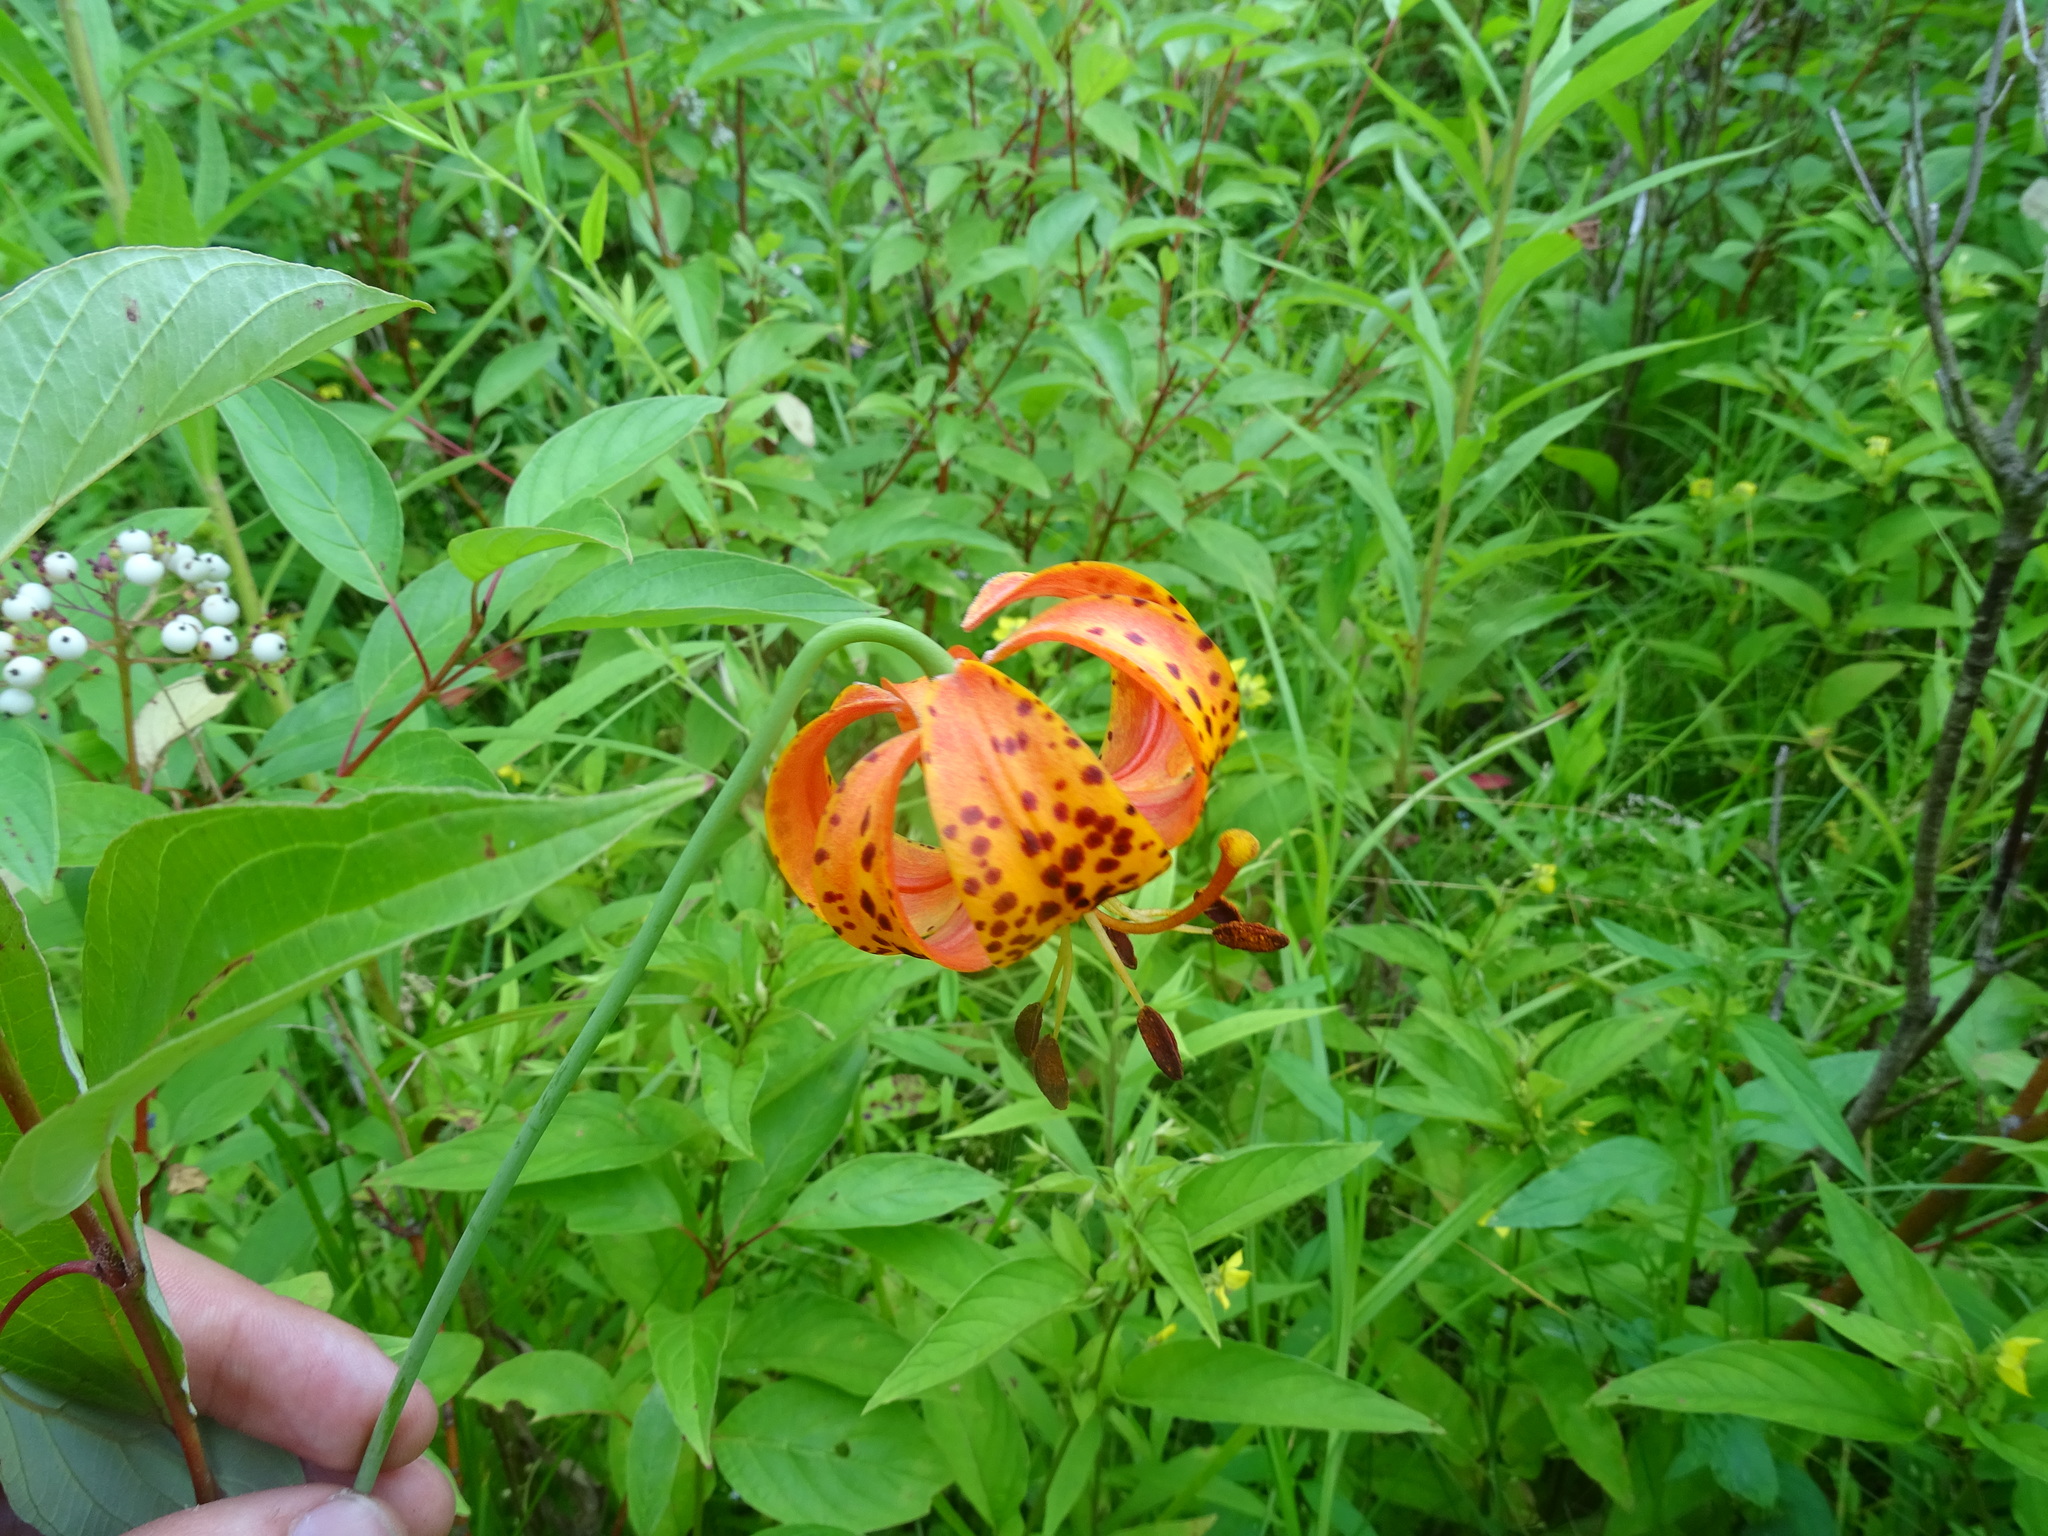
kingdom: Plantae
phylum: Tracheophyta
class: Liliopsida
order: Liliales
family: Liliaceae
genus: Lilium
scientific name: Lilium michiganense
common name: Michigan lily
